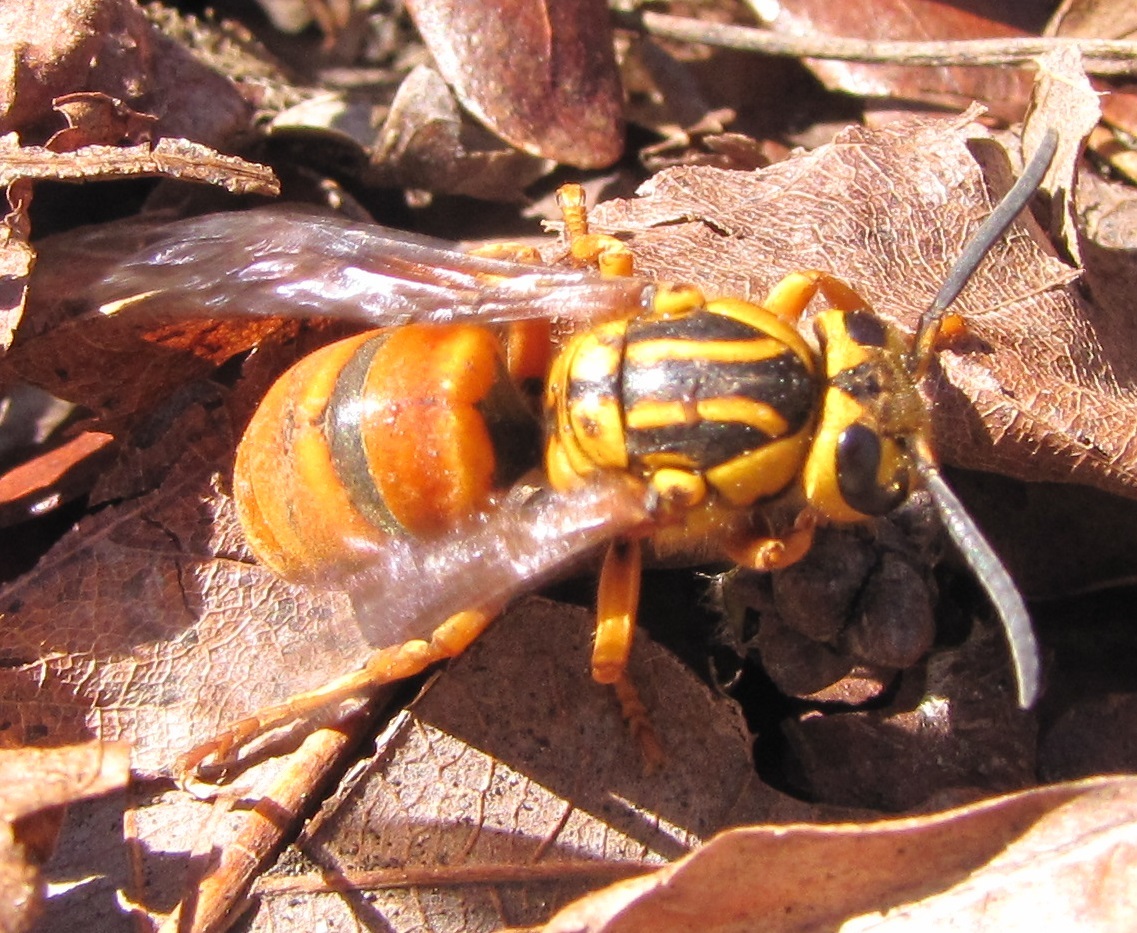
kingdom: Animalia
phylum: Arthropoda
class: Insecta
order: Hymenoptera
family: Vespidae
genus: Vespula
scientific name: Vespula squamosa
